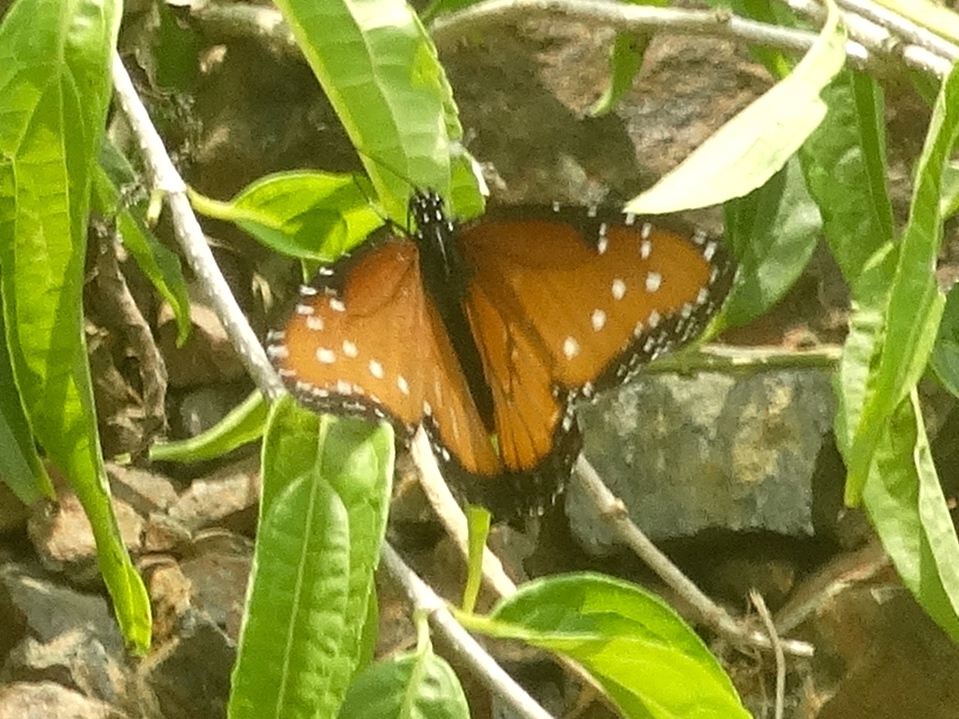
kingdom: Animalia
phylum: Arthropoda
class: Insecta
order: Lepidoptera
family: Nymphalidae
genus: Danaus
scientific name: Danaus gilippus
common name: Queen
